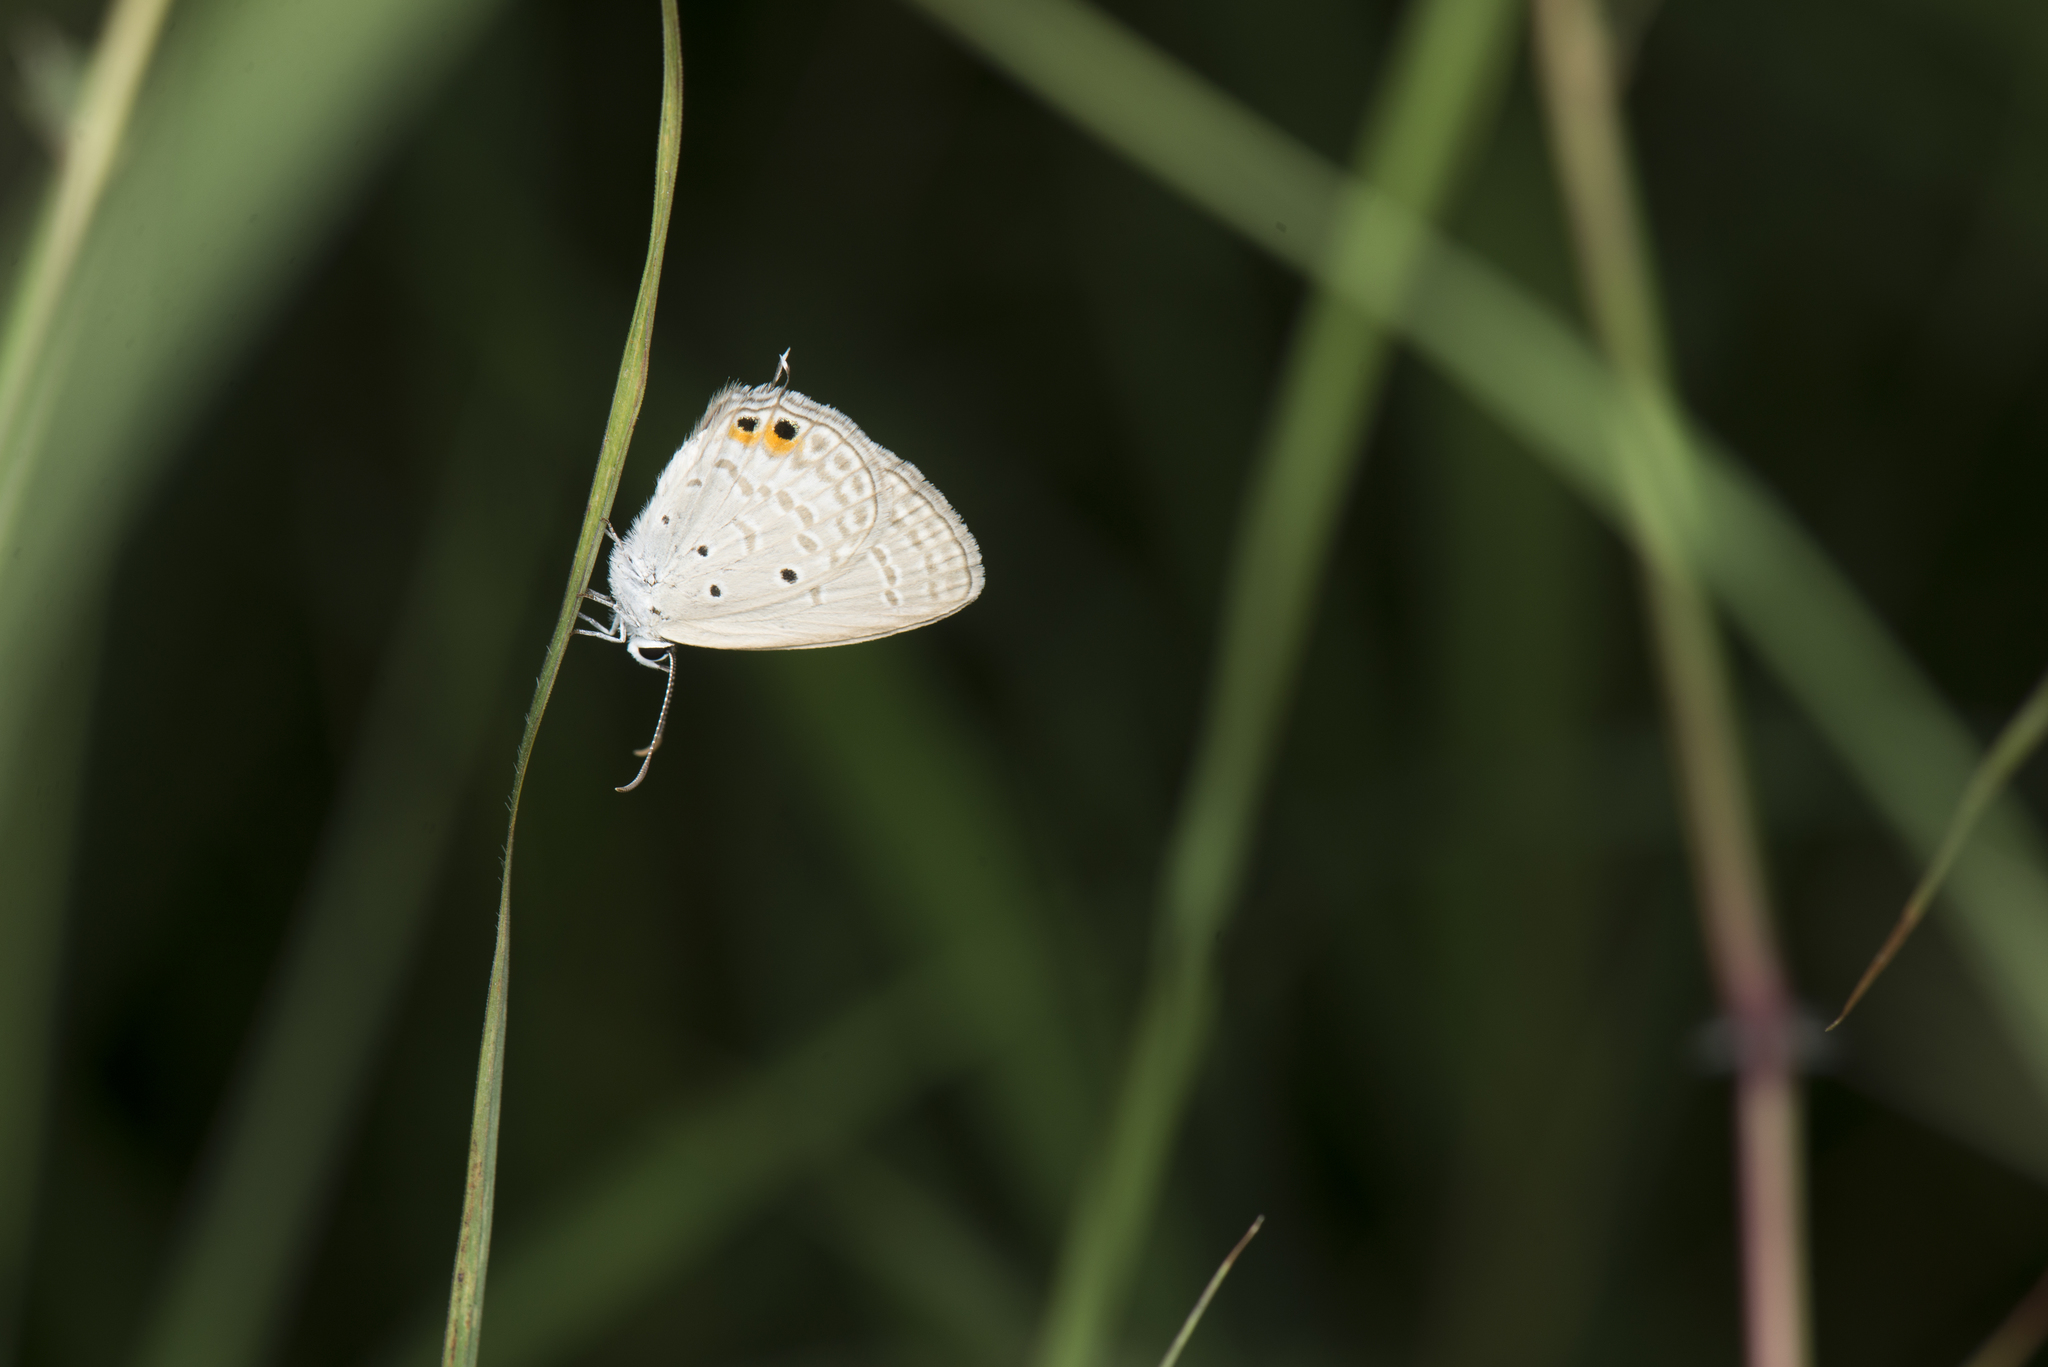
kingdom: Animalia
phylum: Arthropoda
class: Insecta
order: Lepidoptera
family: Lycaenidae
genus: Euchrysops
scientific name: Euchrysops cnejus
